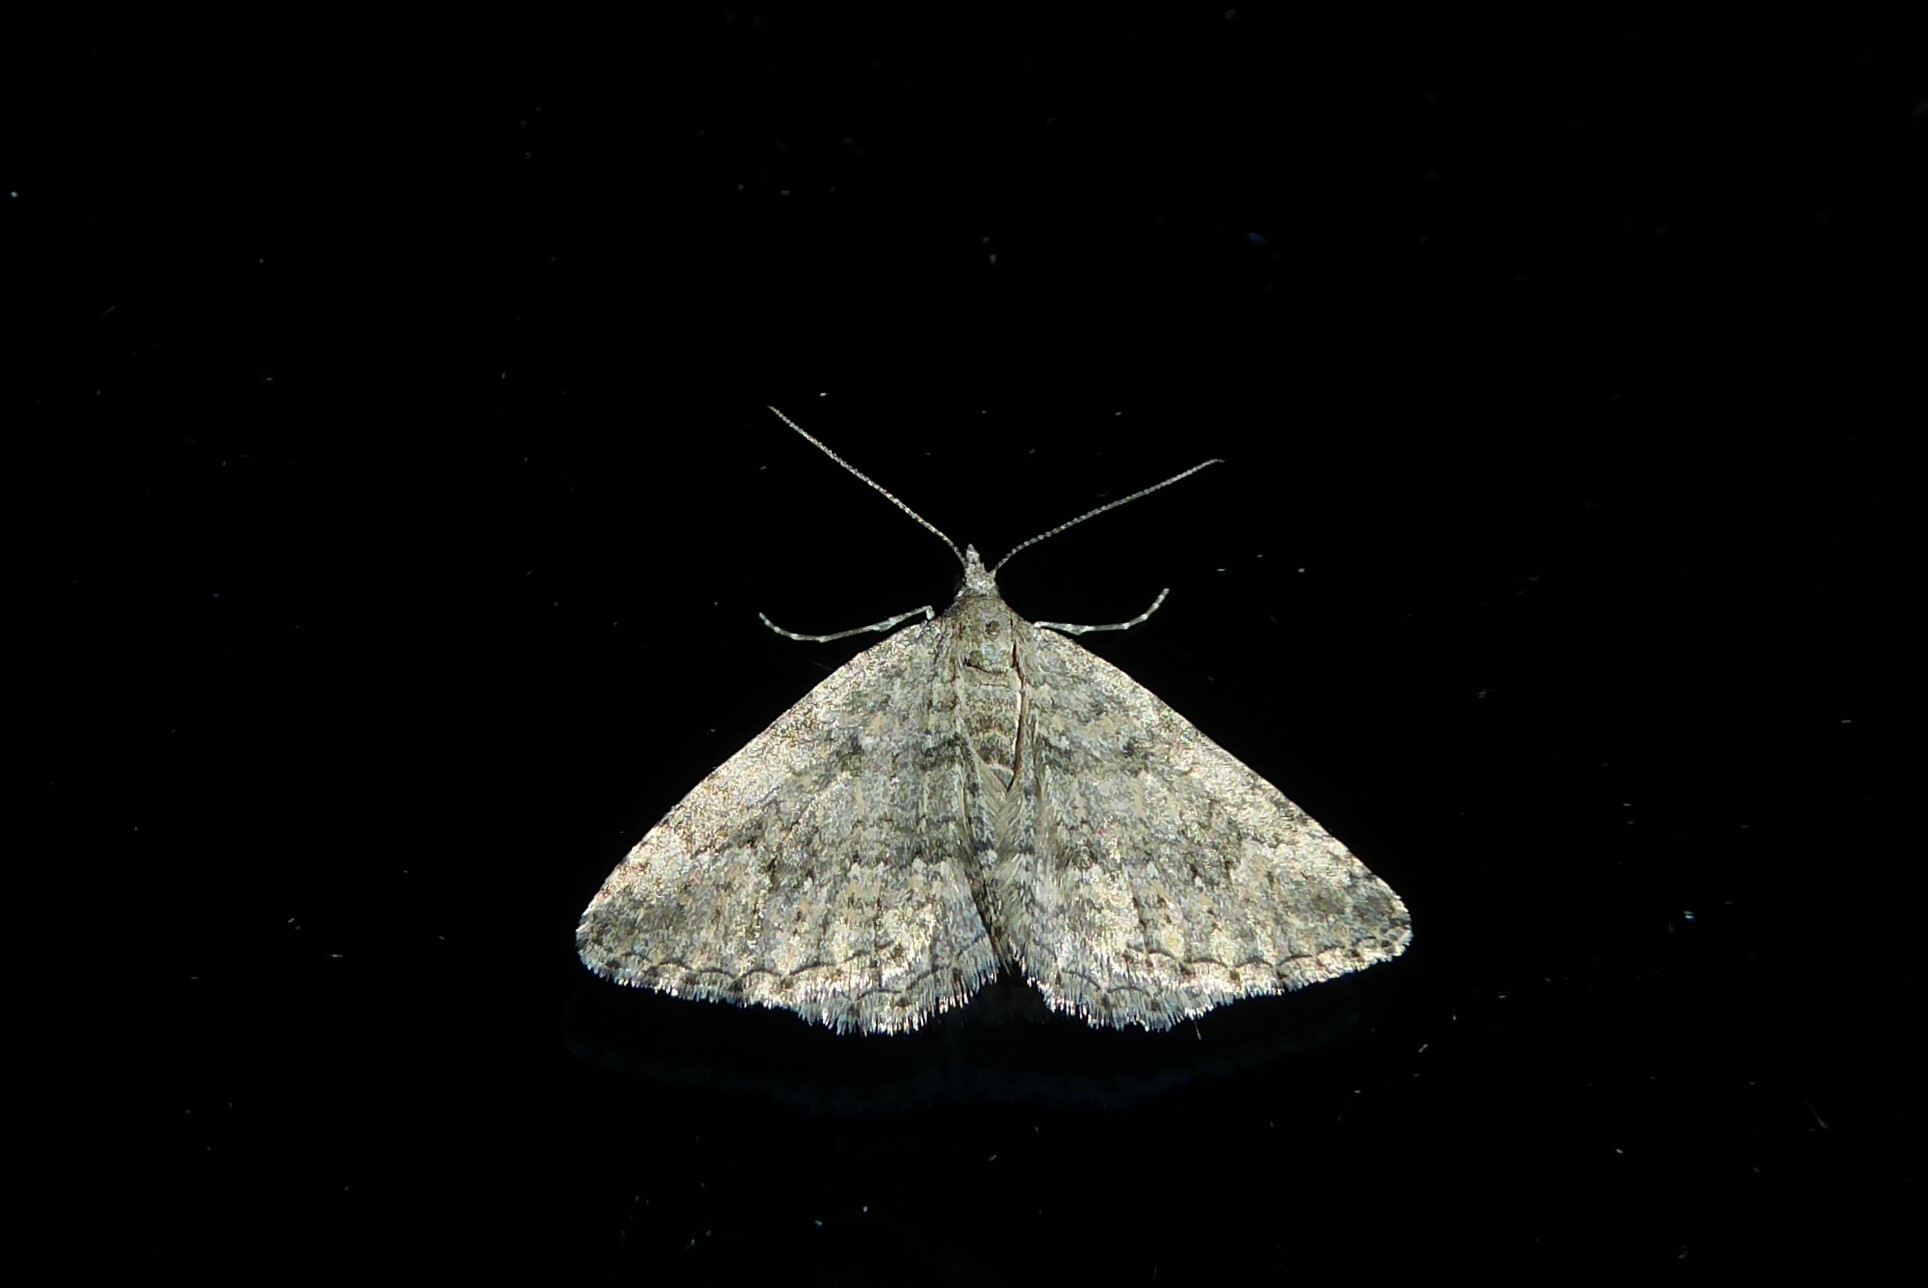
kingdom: Animalia
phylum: Arthropoda
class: Insecta
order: Lepidoptera
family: Geometridae
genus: Helastia
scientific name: Helastia corcularia
